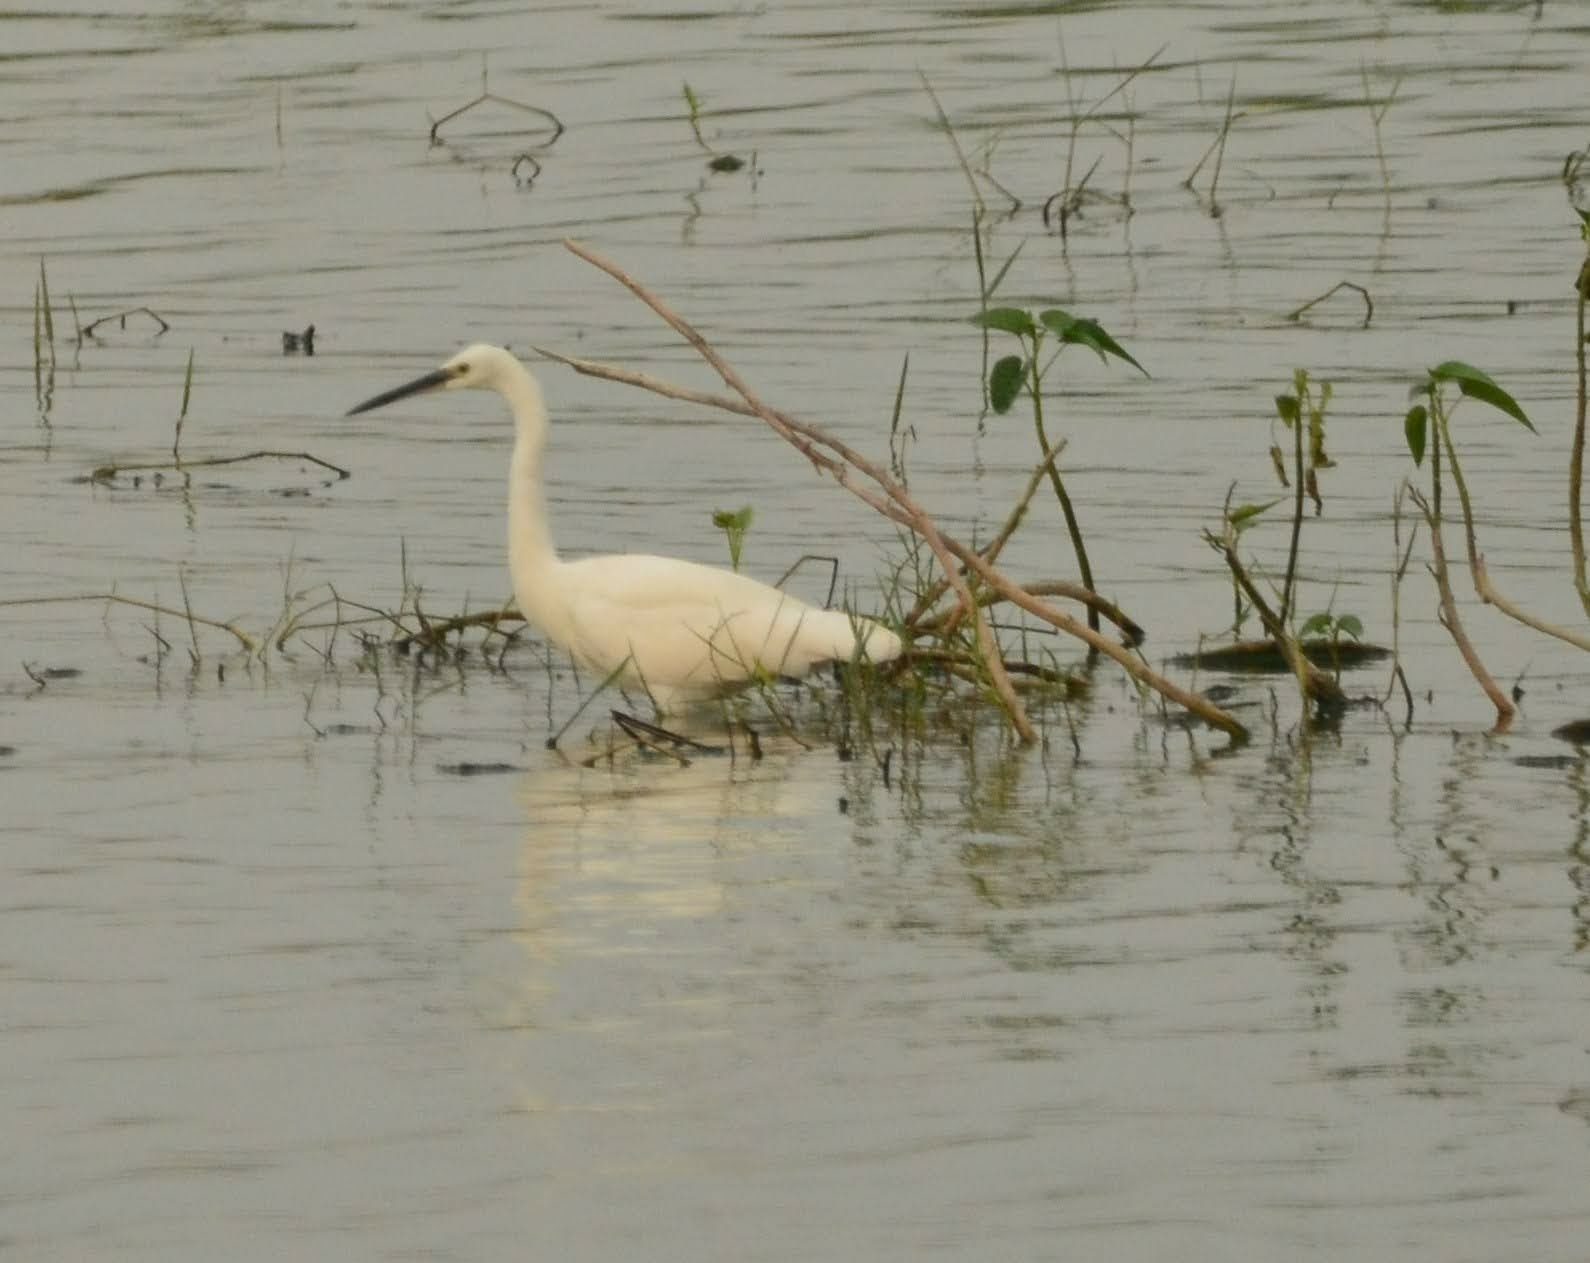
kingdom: Animalia
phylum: Chordata
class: Aves
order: Pelecaniformes
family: Ardeidae
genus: Egretta
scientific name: Egretta garzetta
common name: Little egret
